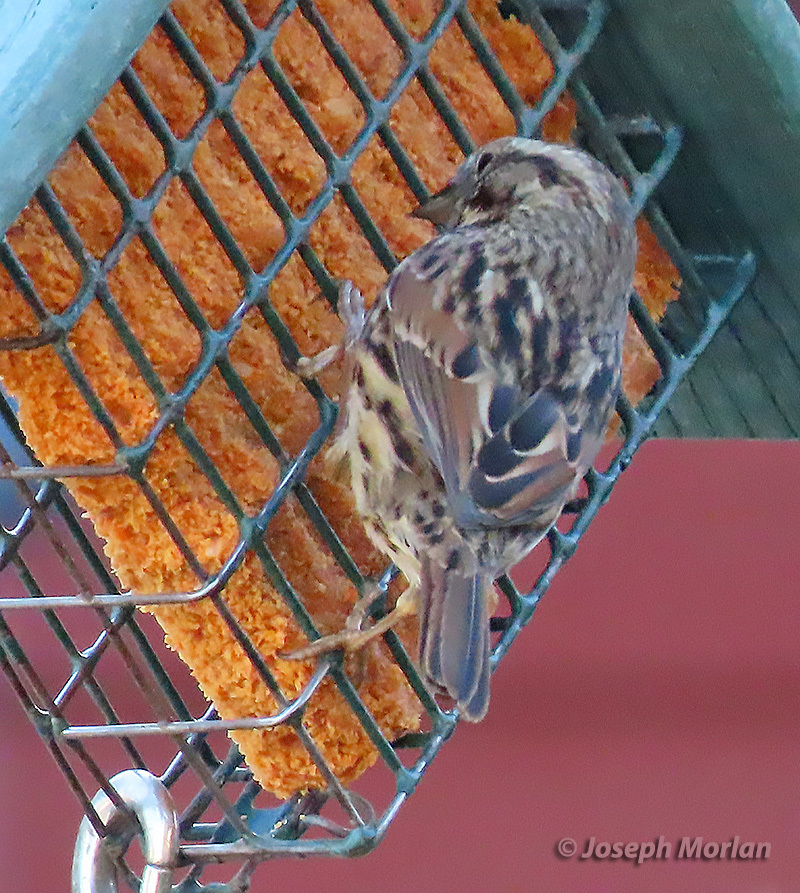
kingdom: Animalia
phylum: Chordata
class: Aves
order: Passeriformes
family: Passerellidae
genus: Melospiza
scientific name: Melospiza melodia
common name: Song sparrow
